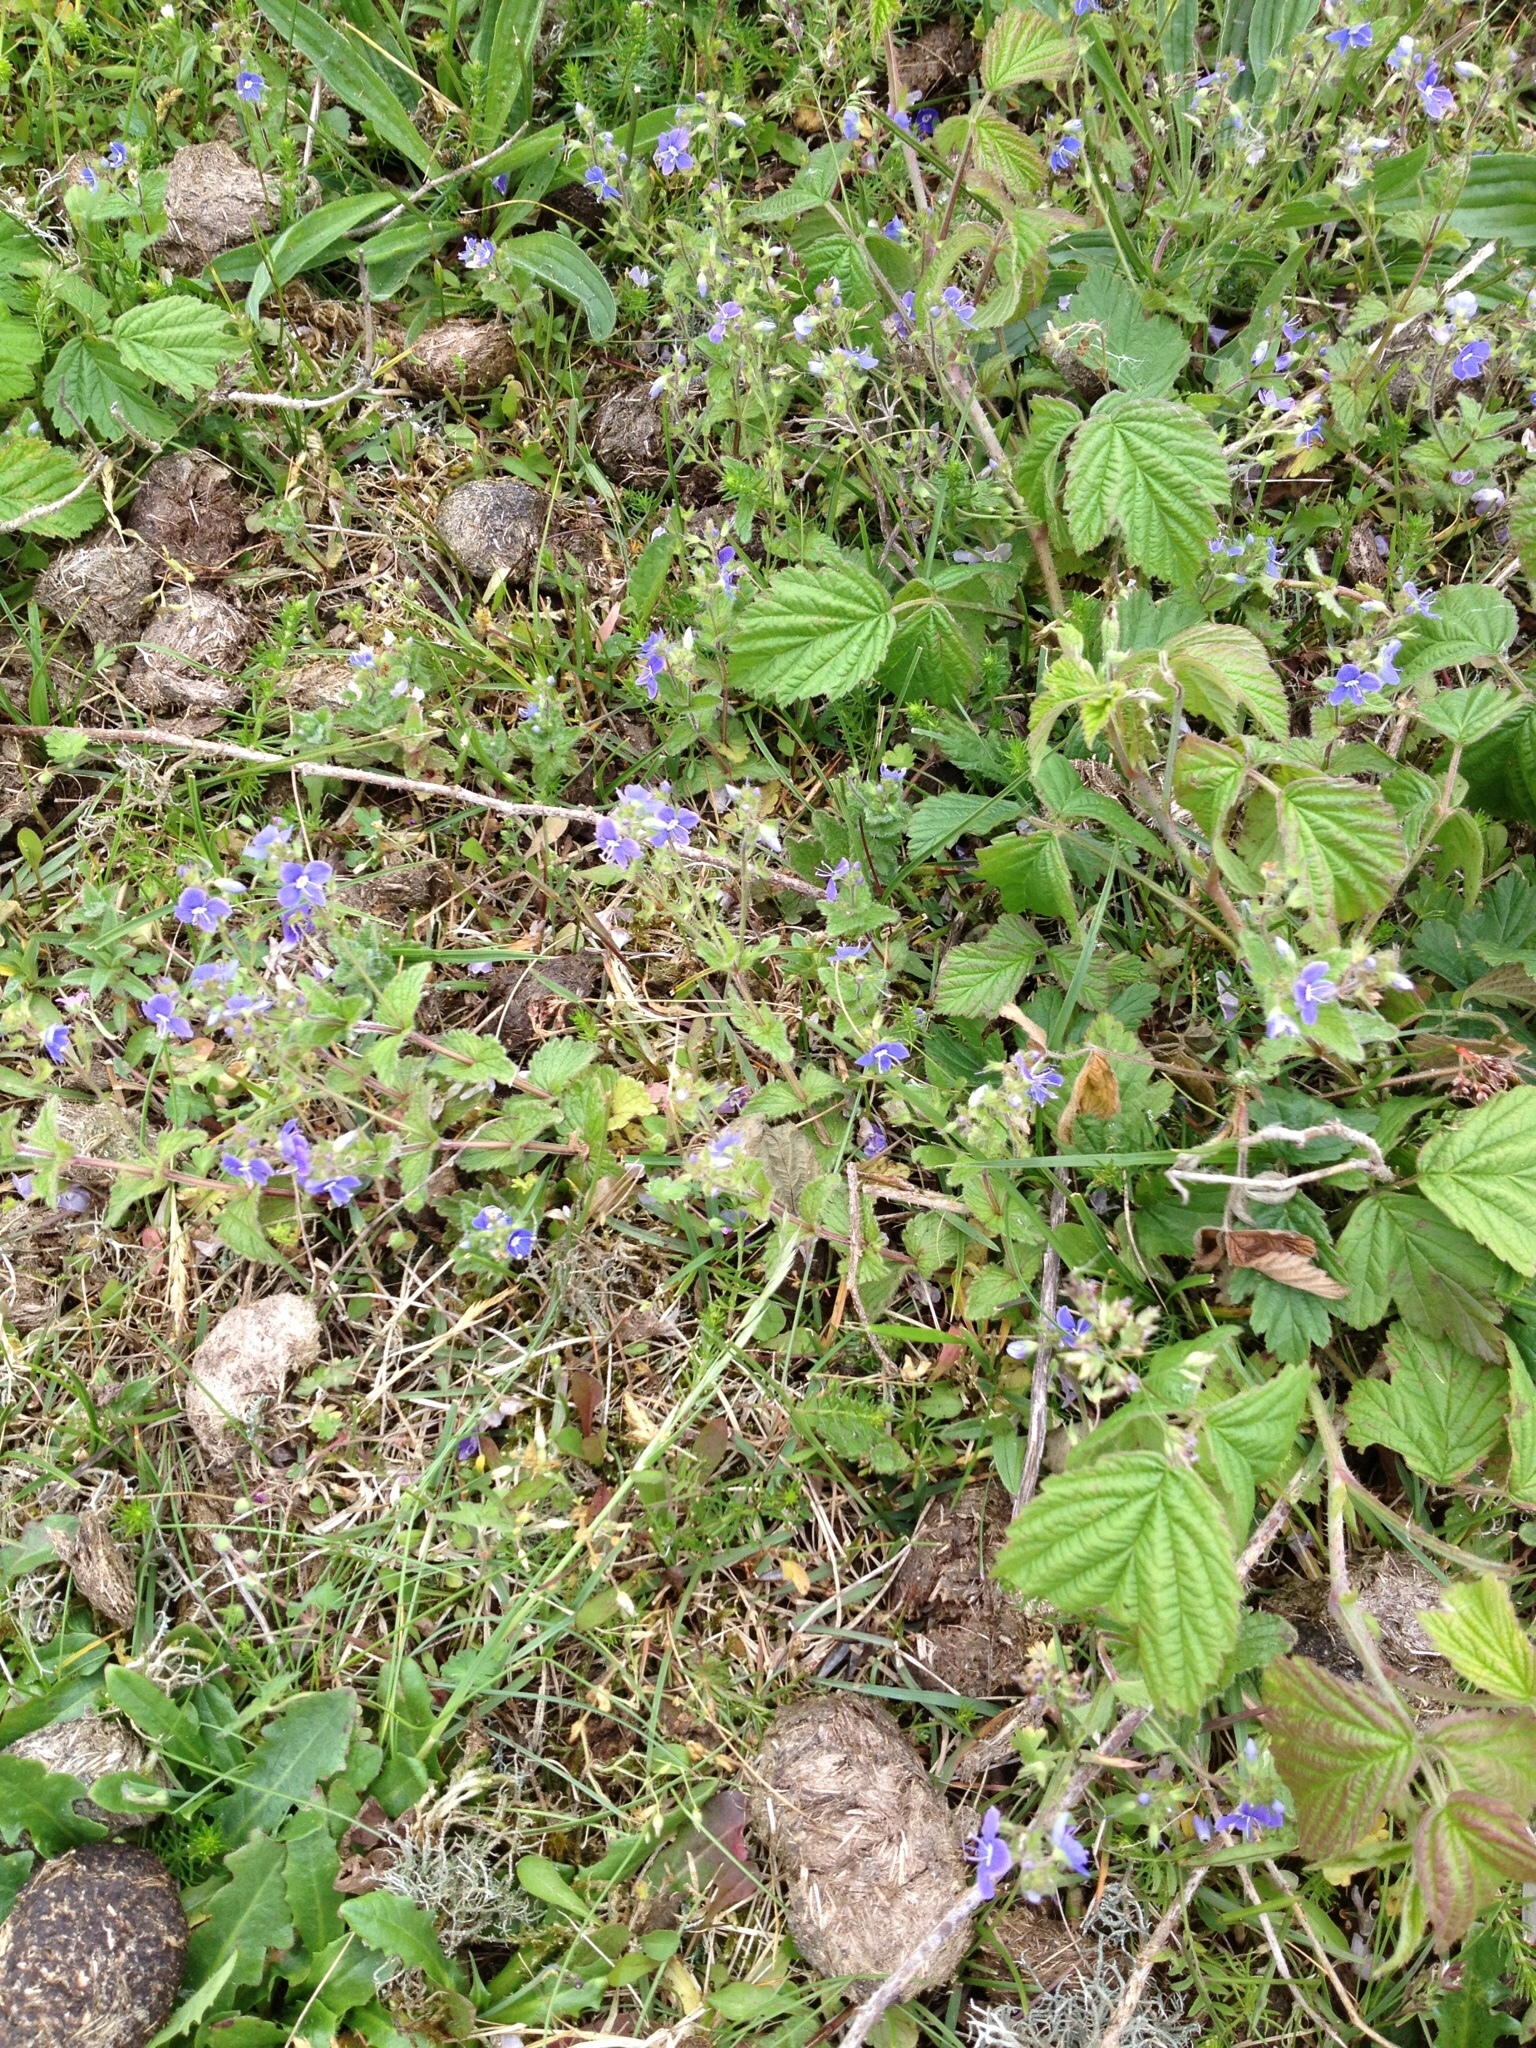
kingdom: Plantae
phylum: Tracheophyta
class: Magnoliopsida
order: Lamiales
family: Plantaginaceae
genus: Veronica
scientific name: Veronica chamaedrys
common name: Germander speedwell
